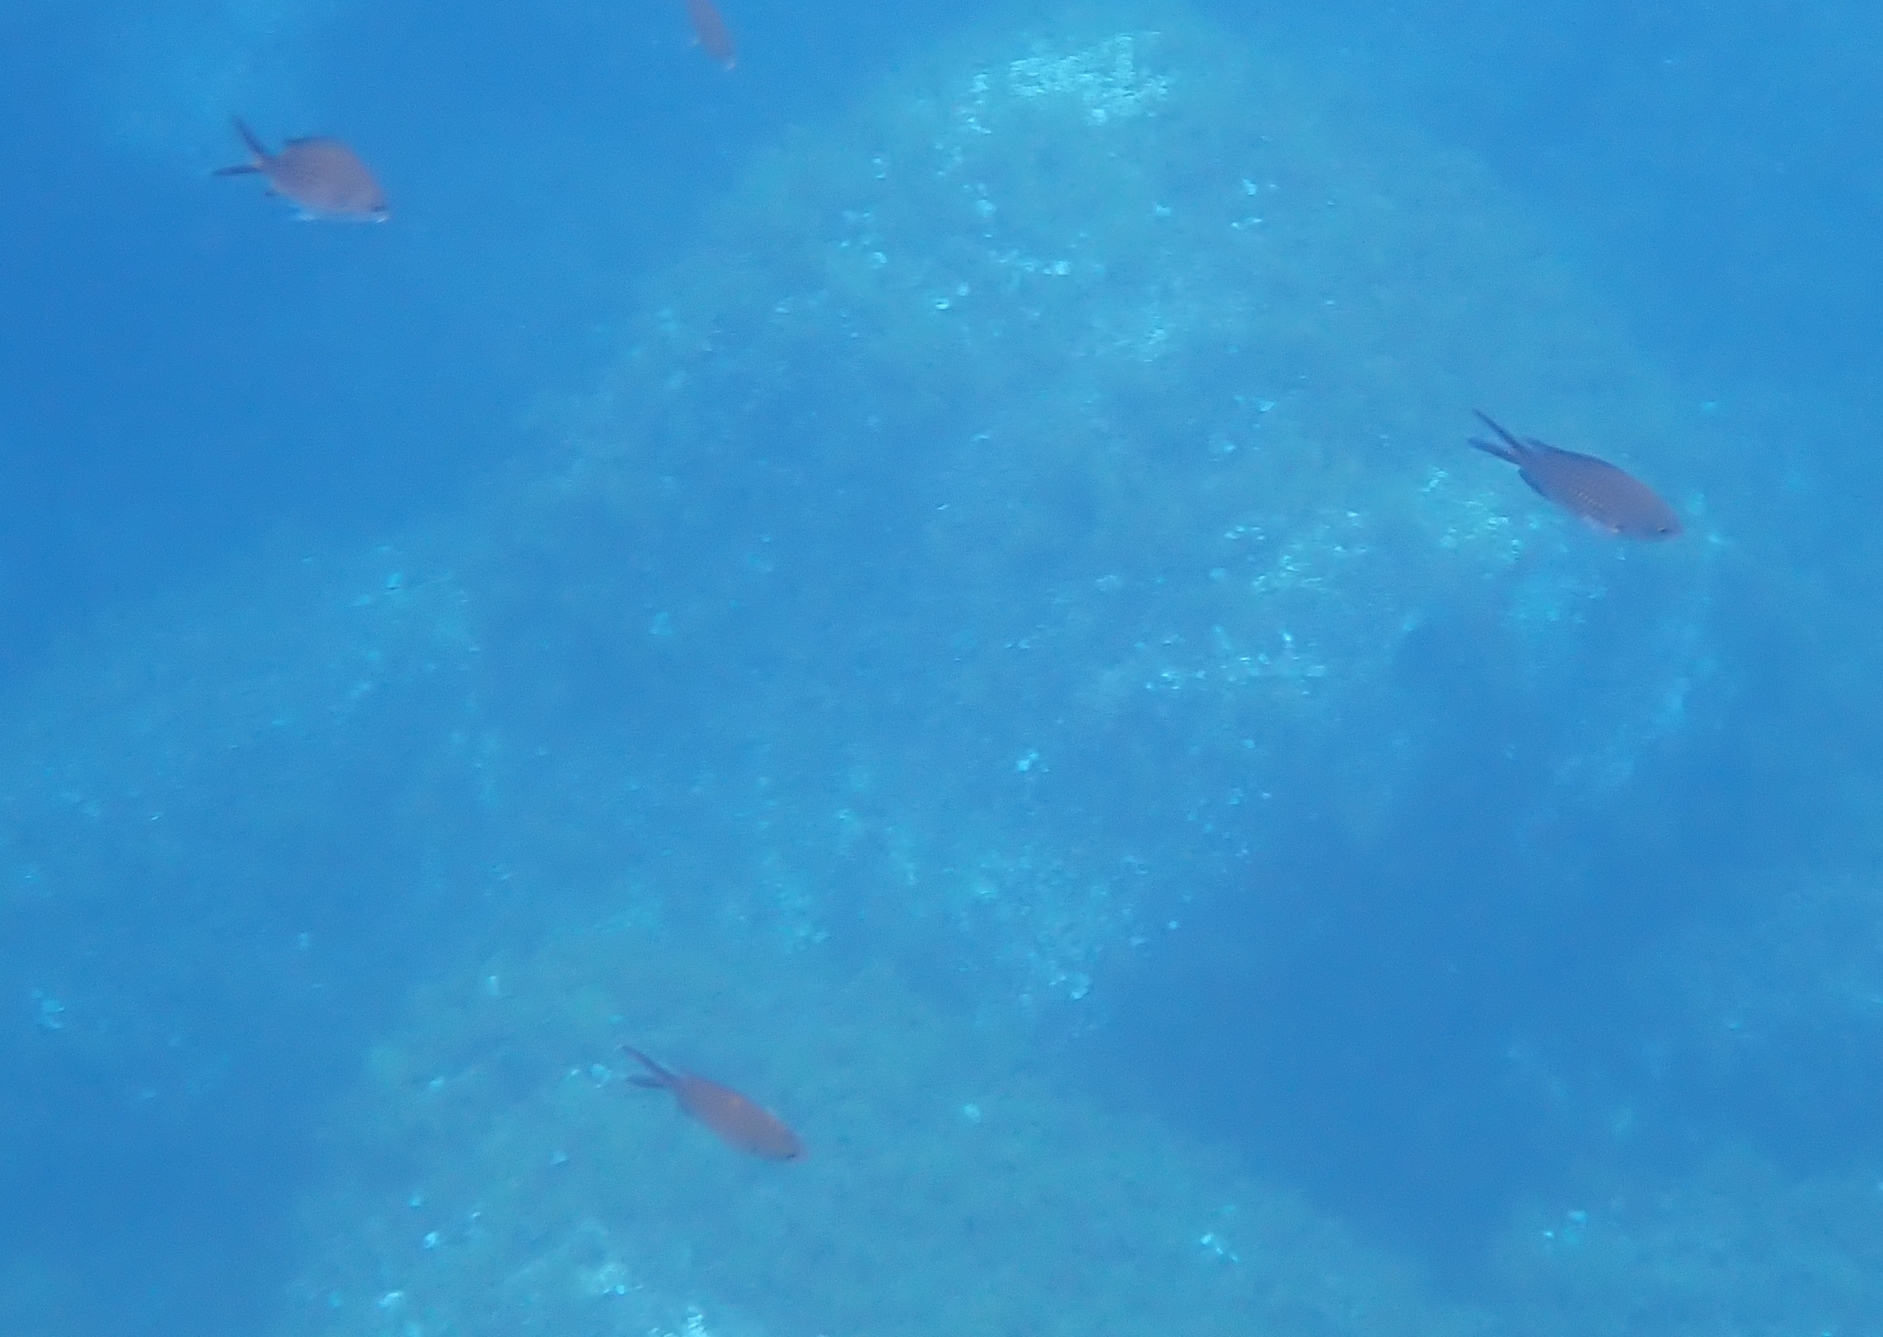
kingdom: Animalia
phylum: Chordata
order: Perciformes
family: Pomacentridae
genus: Chromis
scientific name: Chromis chromis
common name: Damselfish
